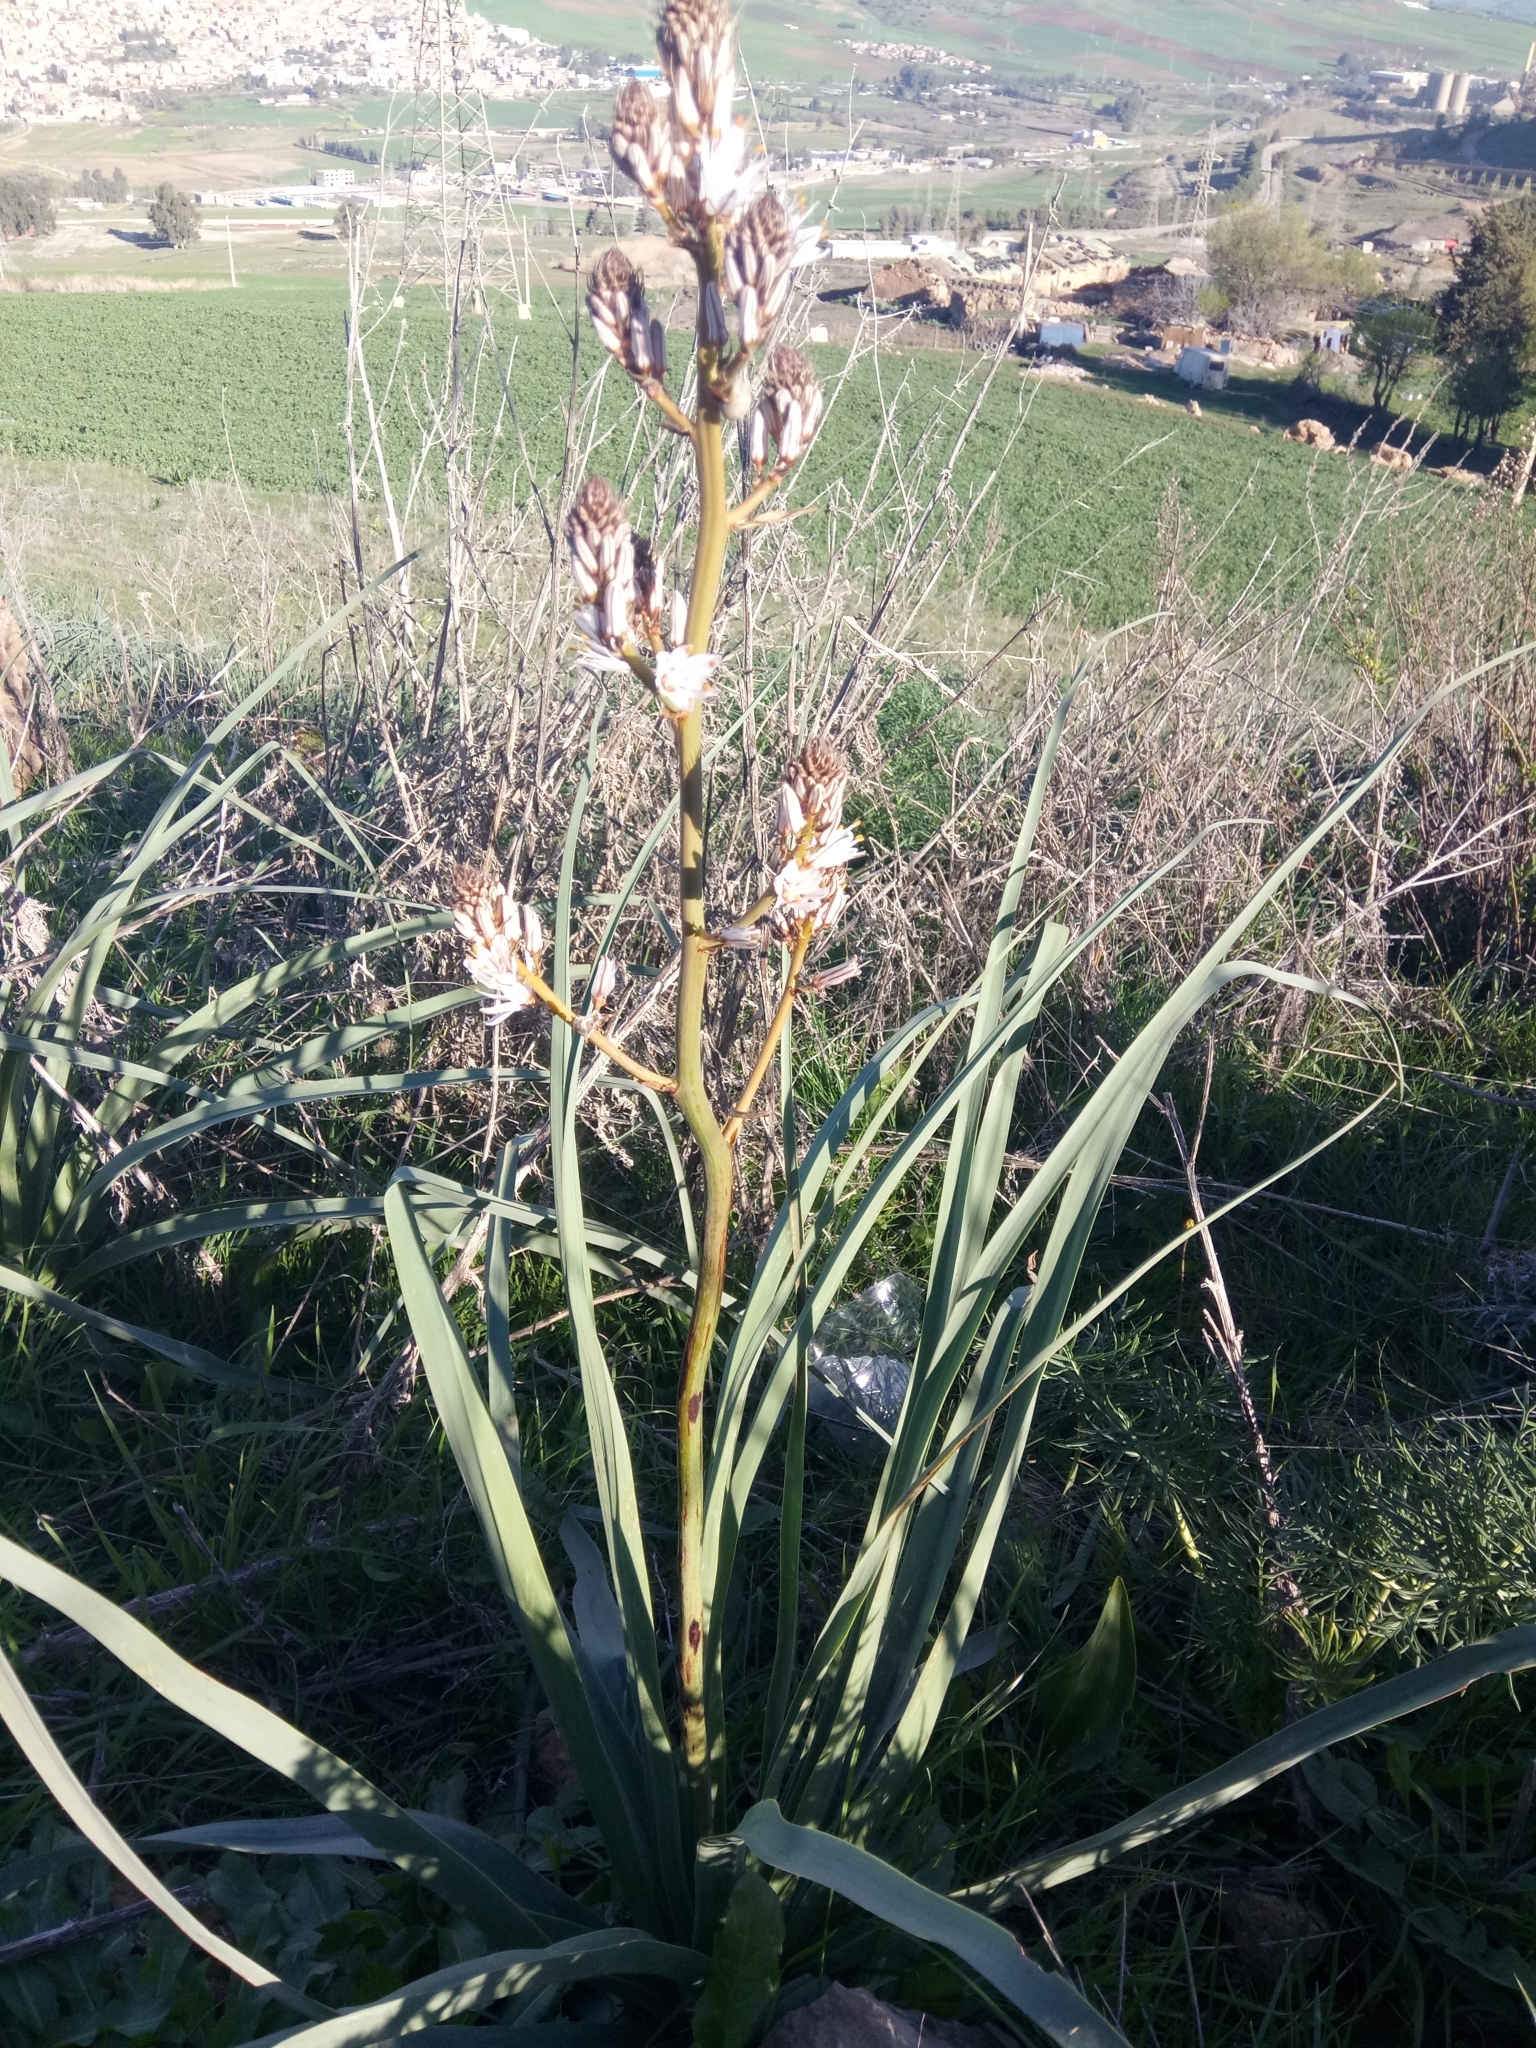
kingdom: Plantae
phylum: Tracheophyta
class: Liliopsida
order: Asparagales
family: Asphodelaceae
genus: Asphodelus
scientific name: Asphodelus ramosus
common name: Silverrod
